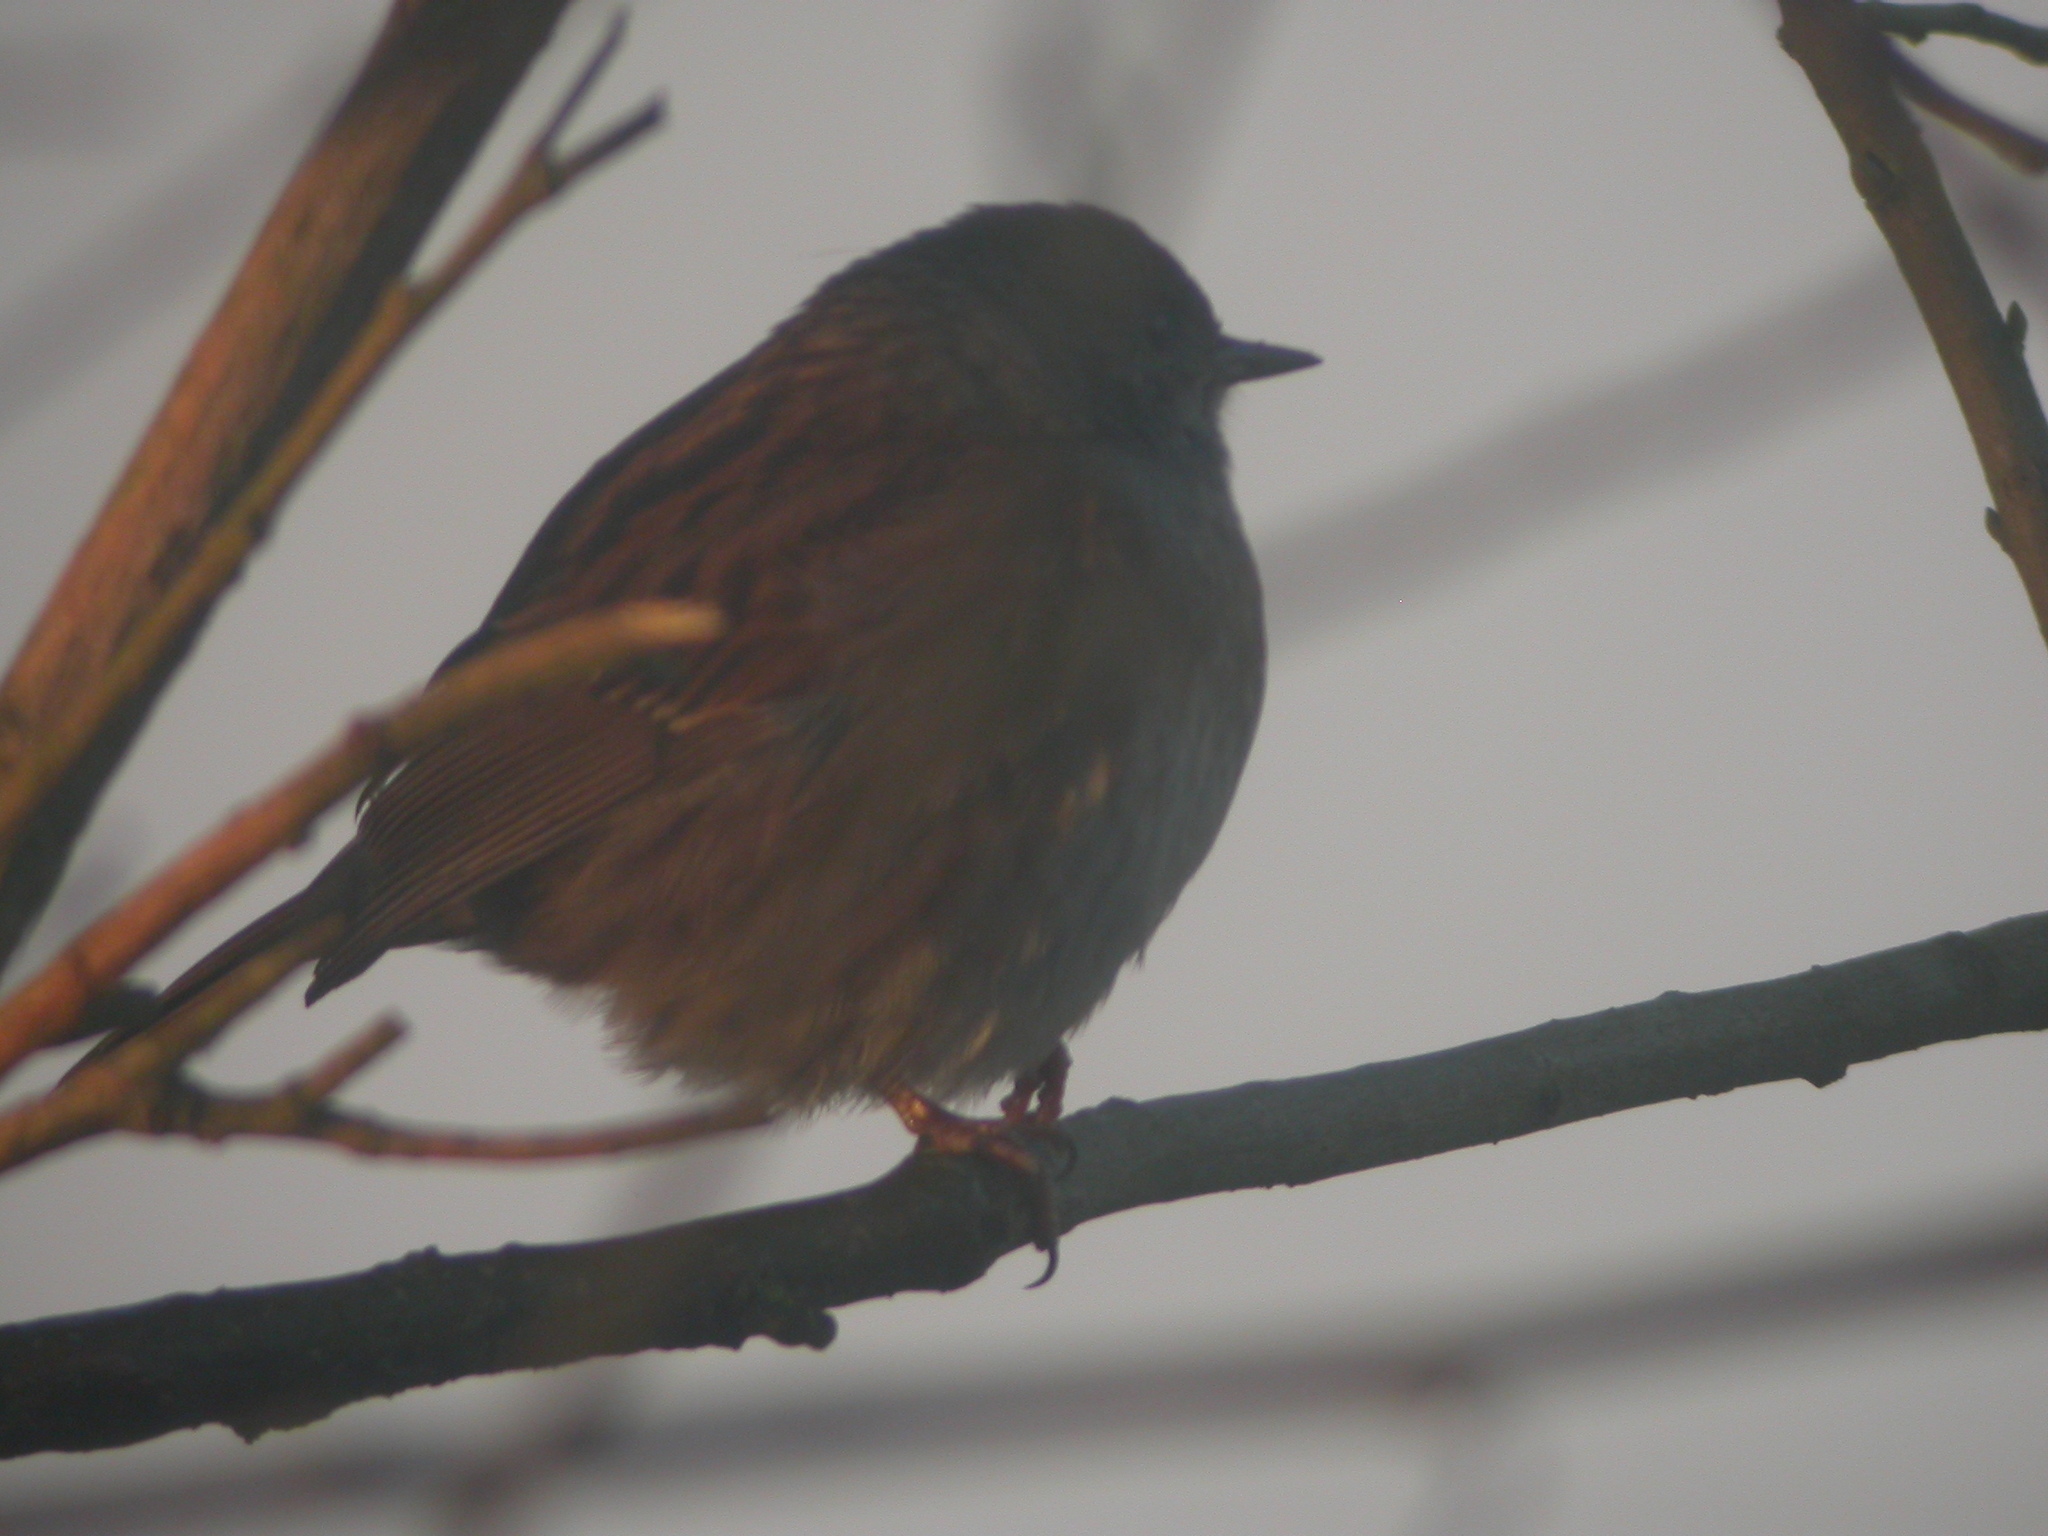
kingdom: Animalia
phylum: Chordata
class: Aves
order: Passeriformes
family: Prunellidae
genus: Prunella
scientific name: Prunella modularis
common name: Dunnock
